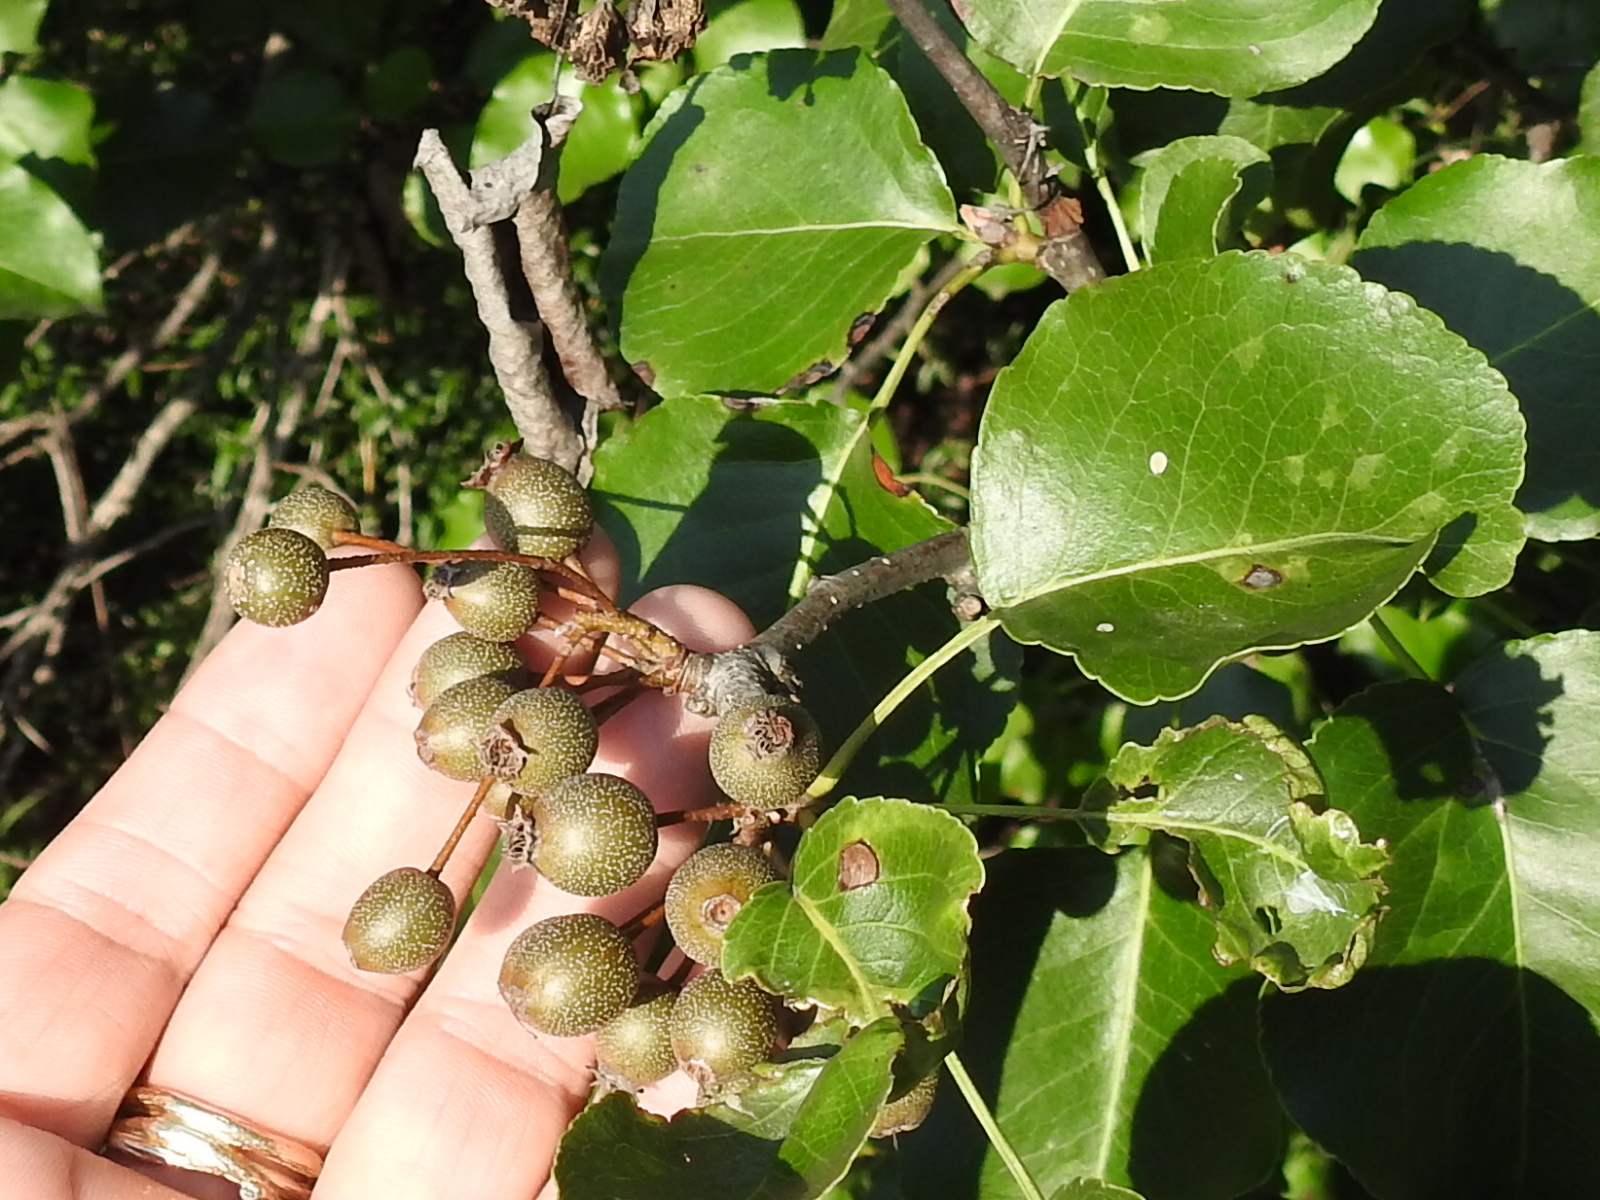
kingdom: Plantae
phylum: Tracheophyta
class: Magnoliopsida
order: Rosales
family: Rosaceae
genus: Pyrus
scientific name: Pyrus calleryana
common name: Callery pear
